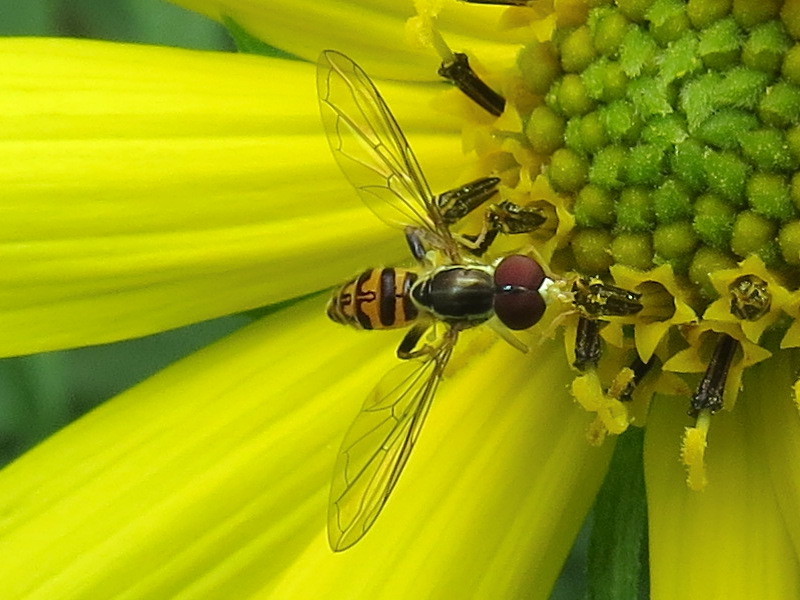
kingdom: Animalia
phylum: Arthropoda
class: Insecta
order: Diptera
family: Syrphidae
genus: Toxomerus
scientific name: Toxomerus geminatus
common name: Eastern calligrapher
